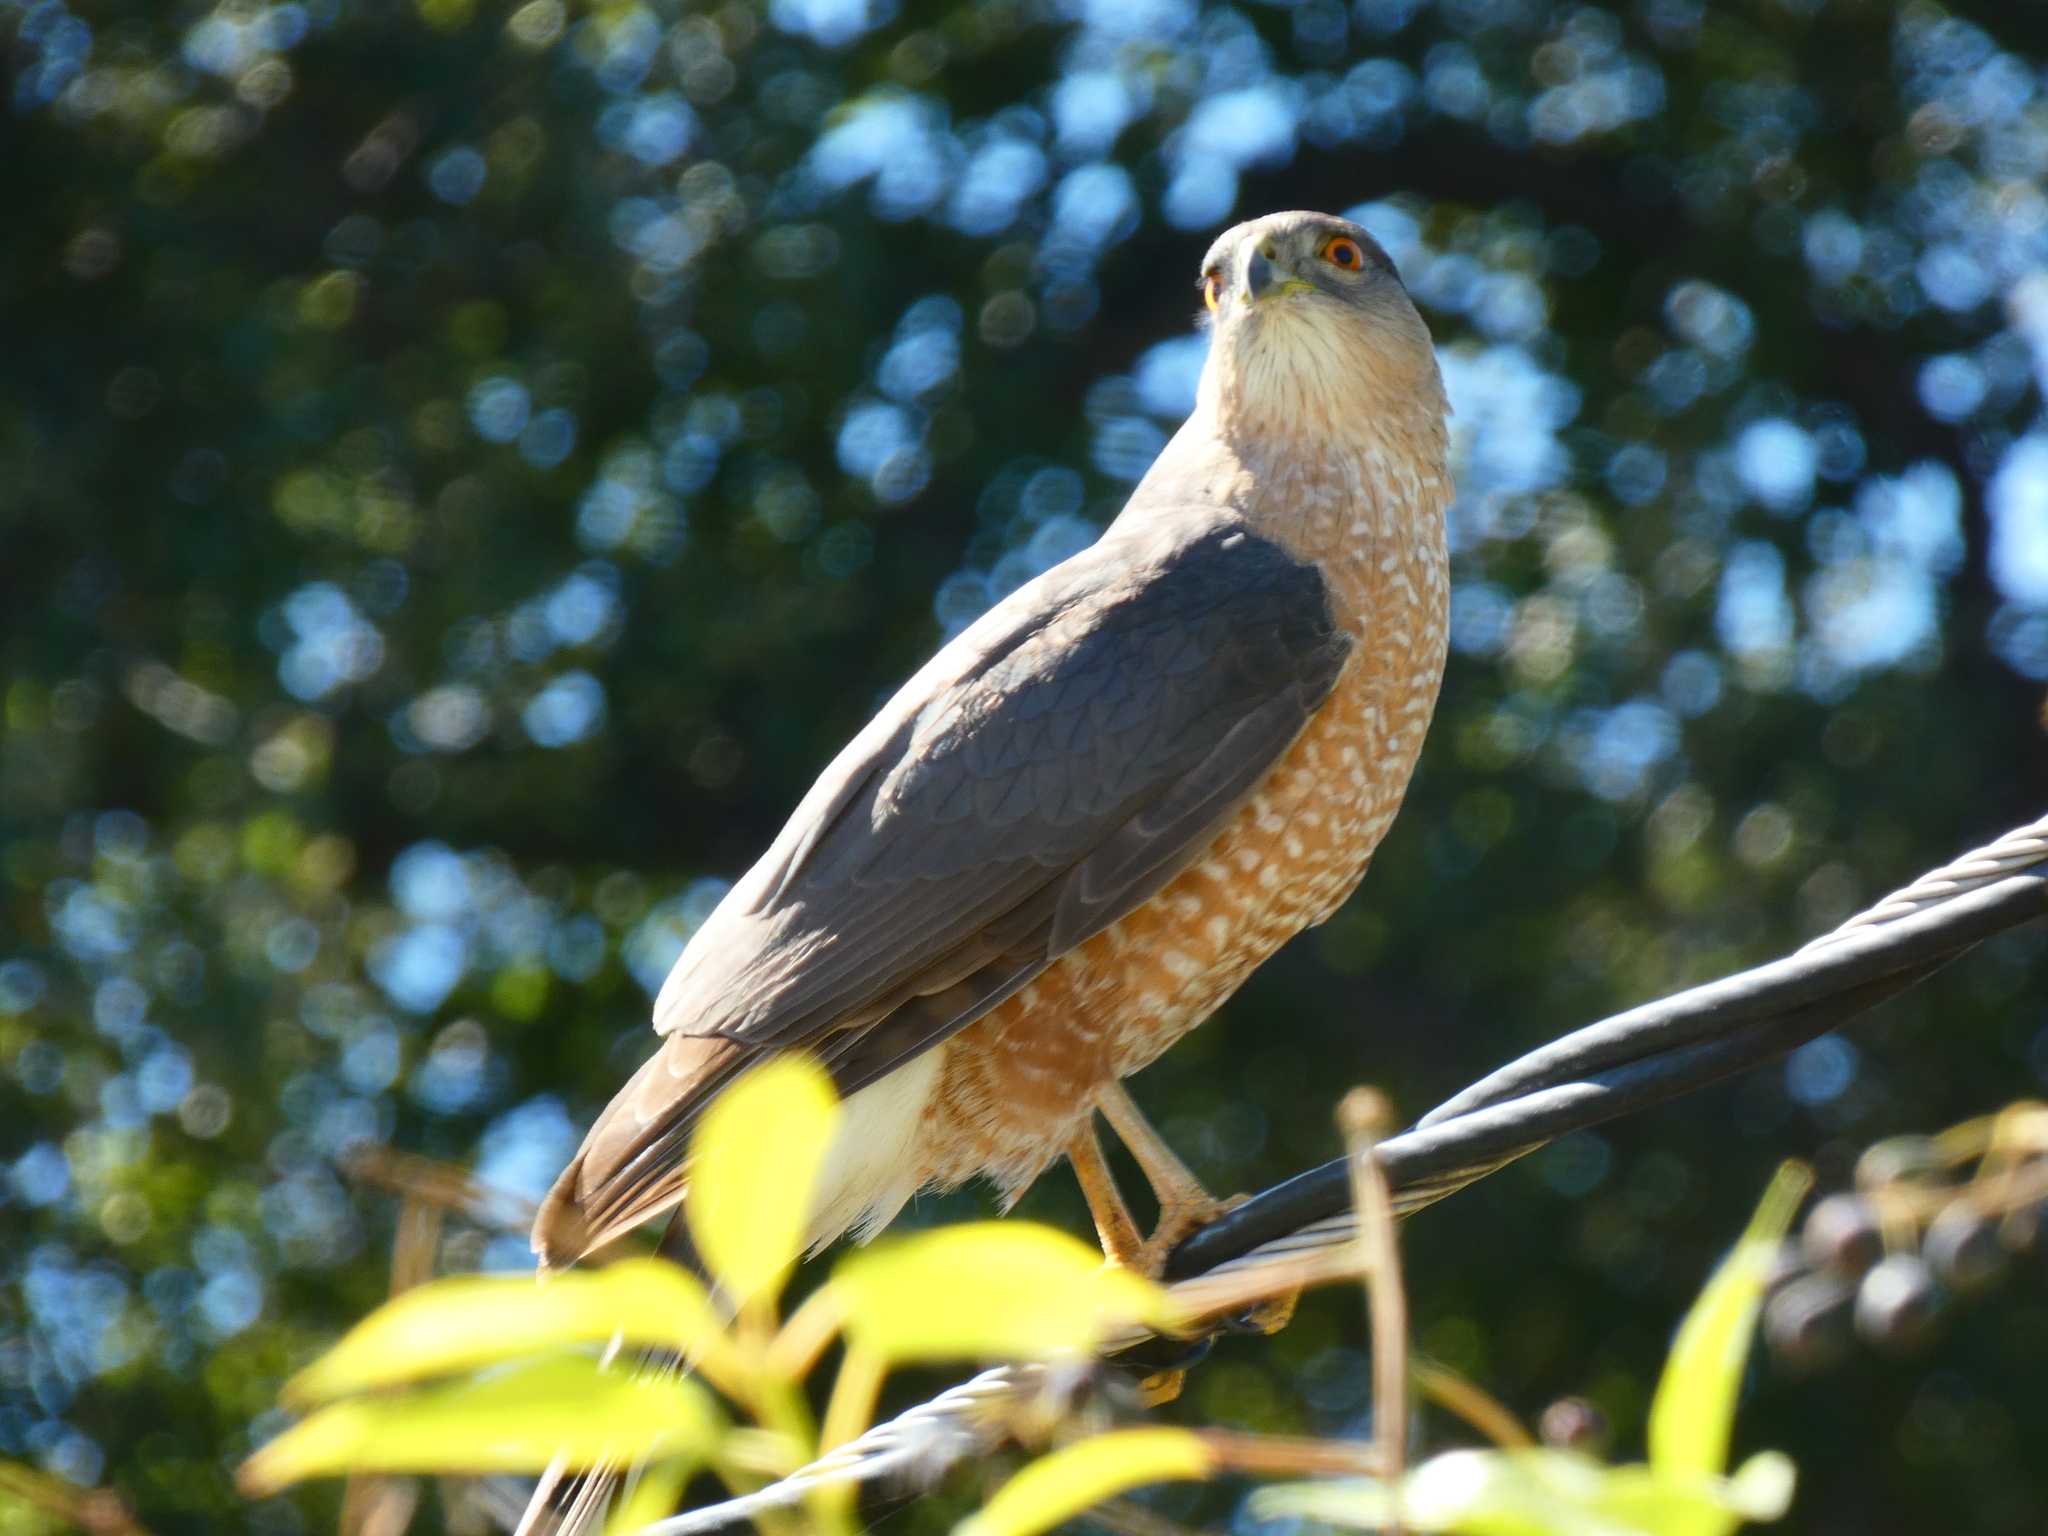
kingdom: Animalia
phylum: Chordata
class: Aves
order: Accipitriformes
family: Accipitridae
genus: Accipiter
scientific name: Accipiter cooperii
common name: Cooper's hawk
